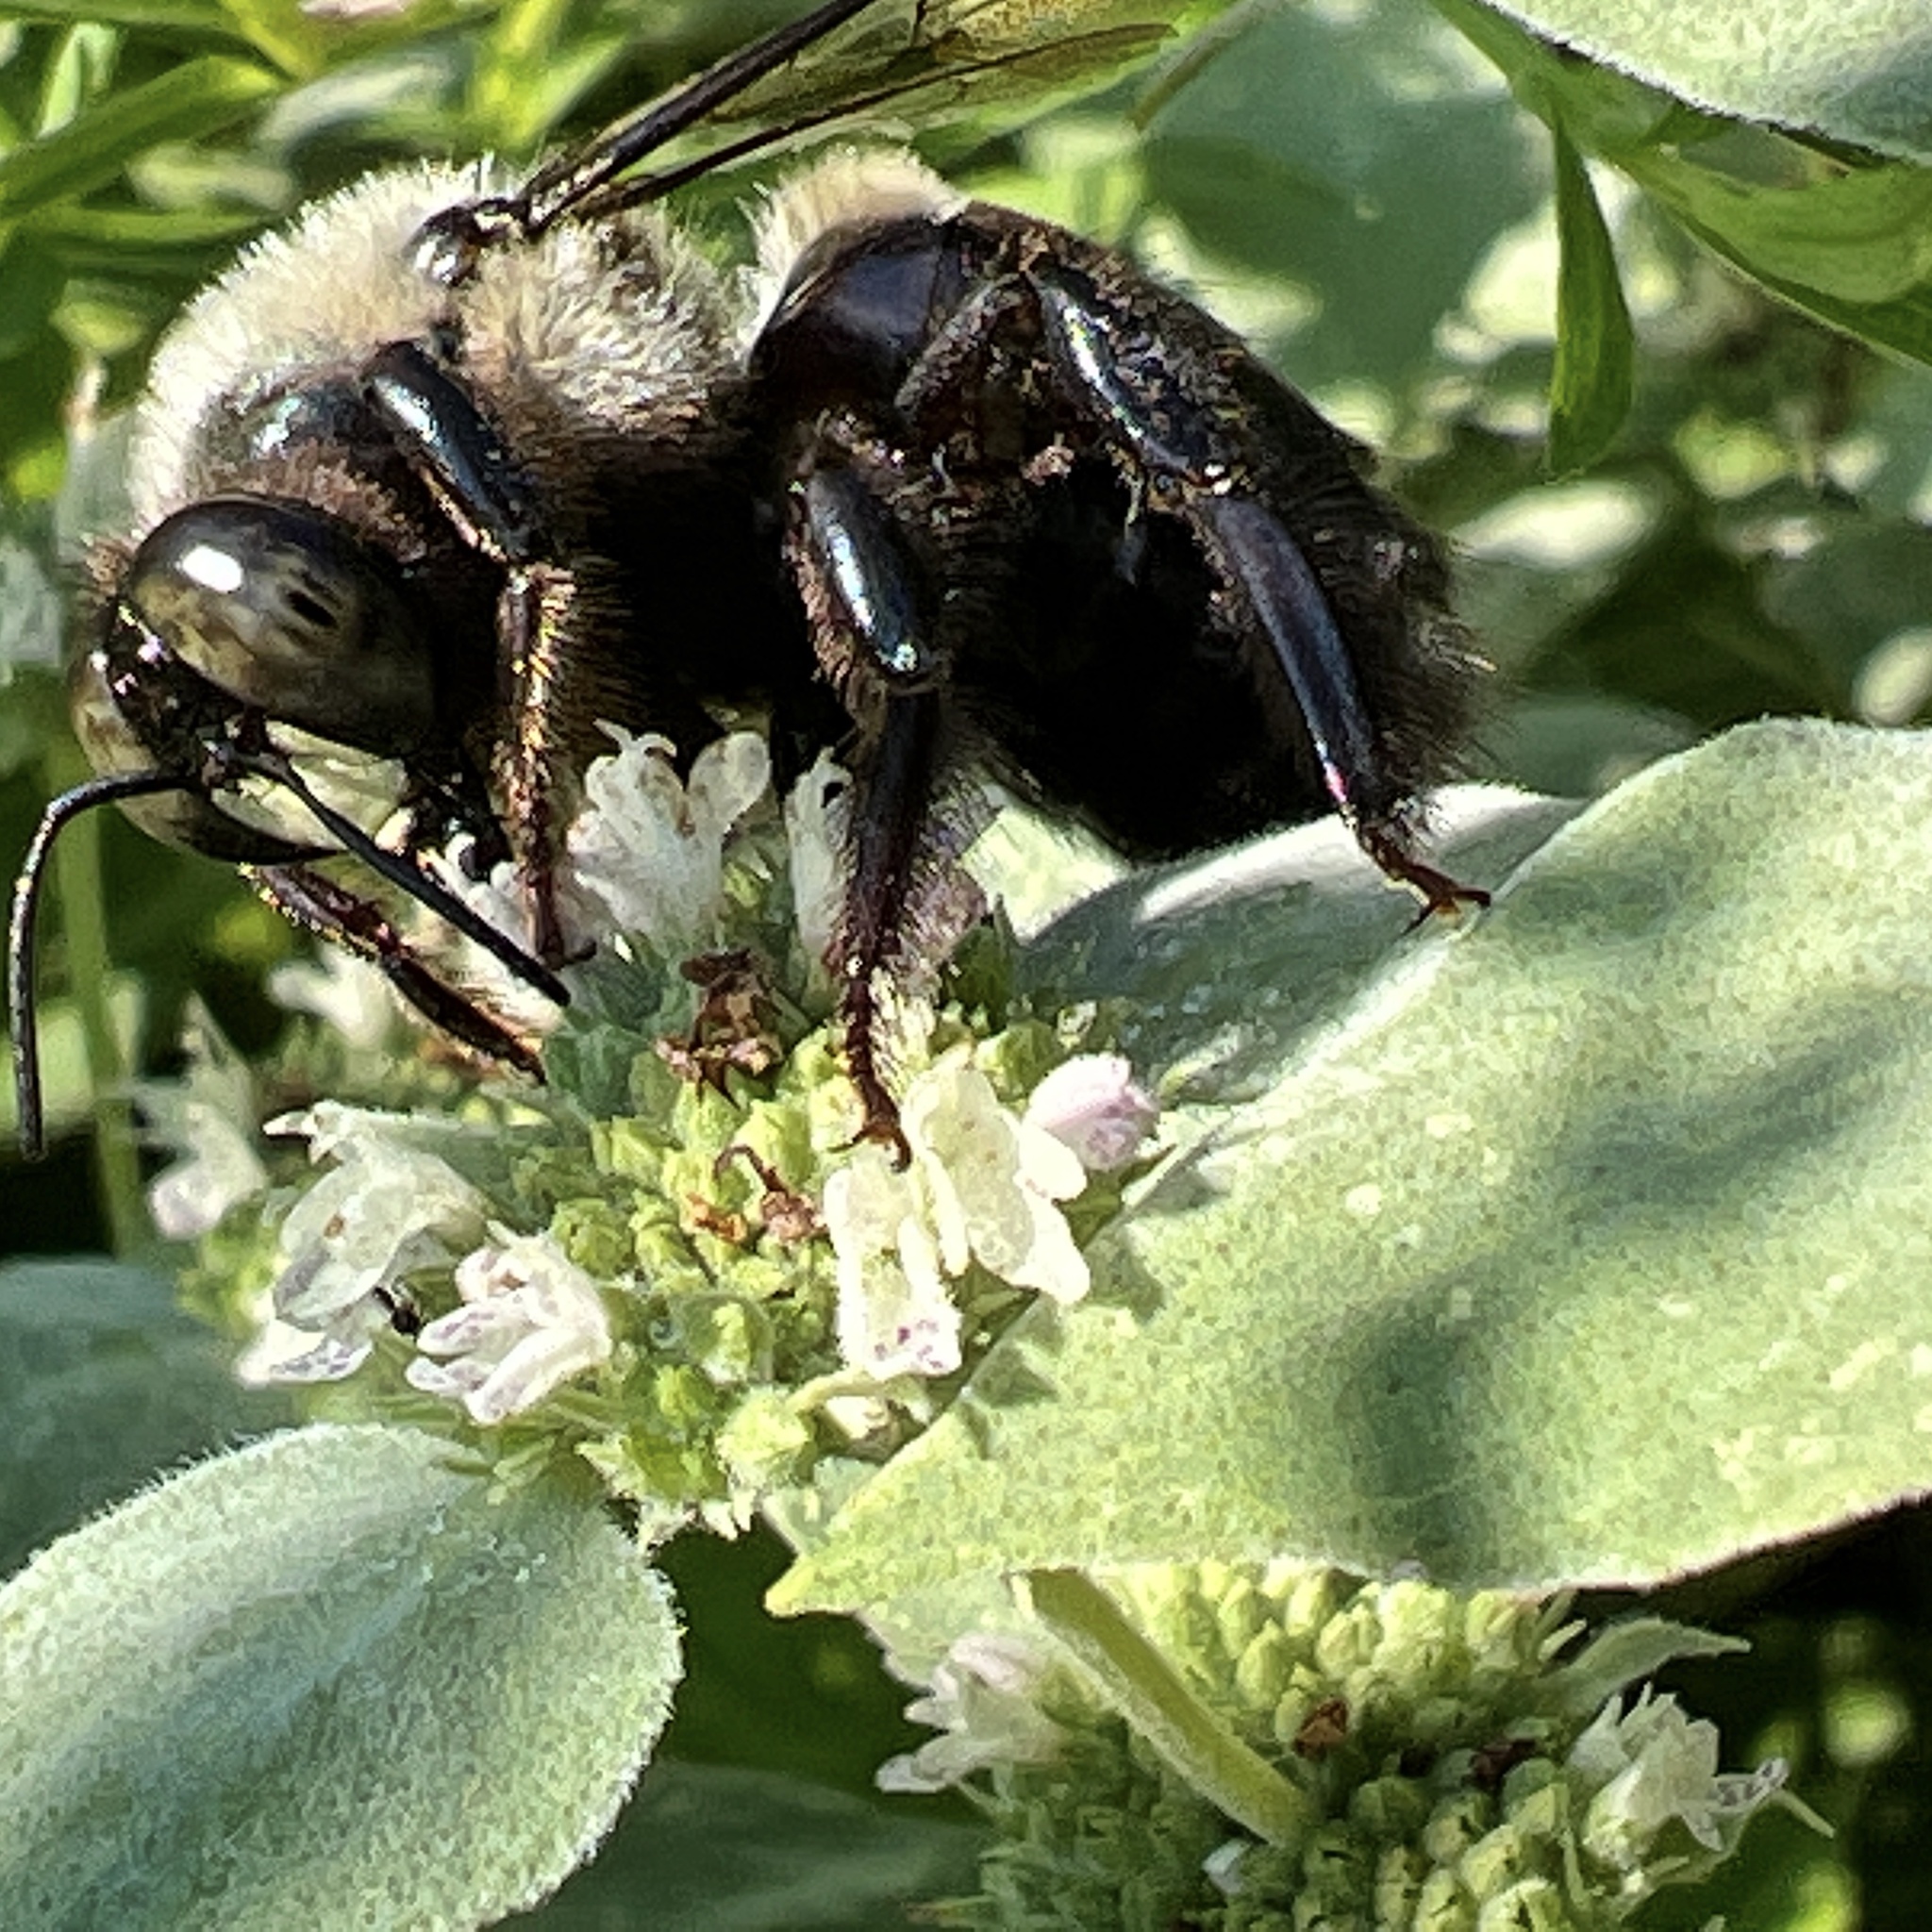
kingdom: Animalia
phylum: Arthropoda
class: Insecta
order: Hymenoptera
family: Apidae
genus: Xylocopa
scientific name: Xylocopa virginica
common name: Carpenter bee
